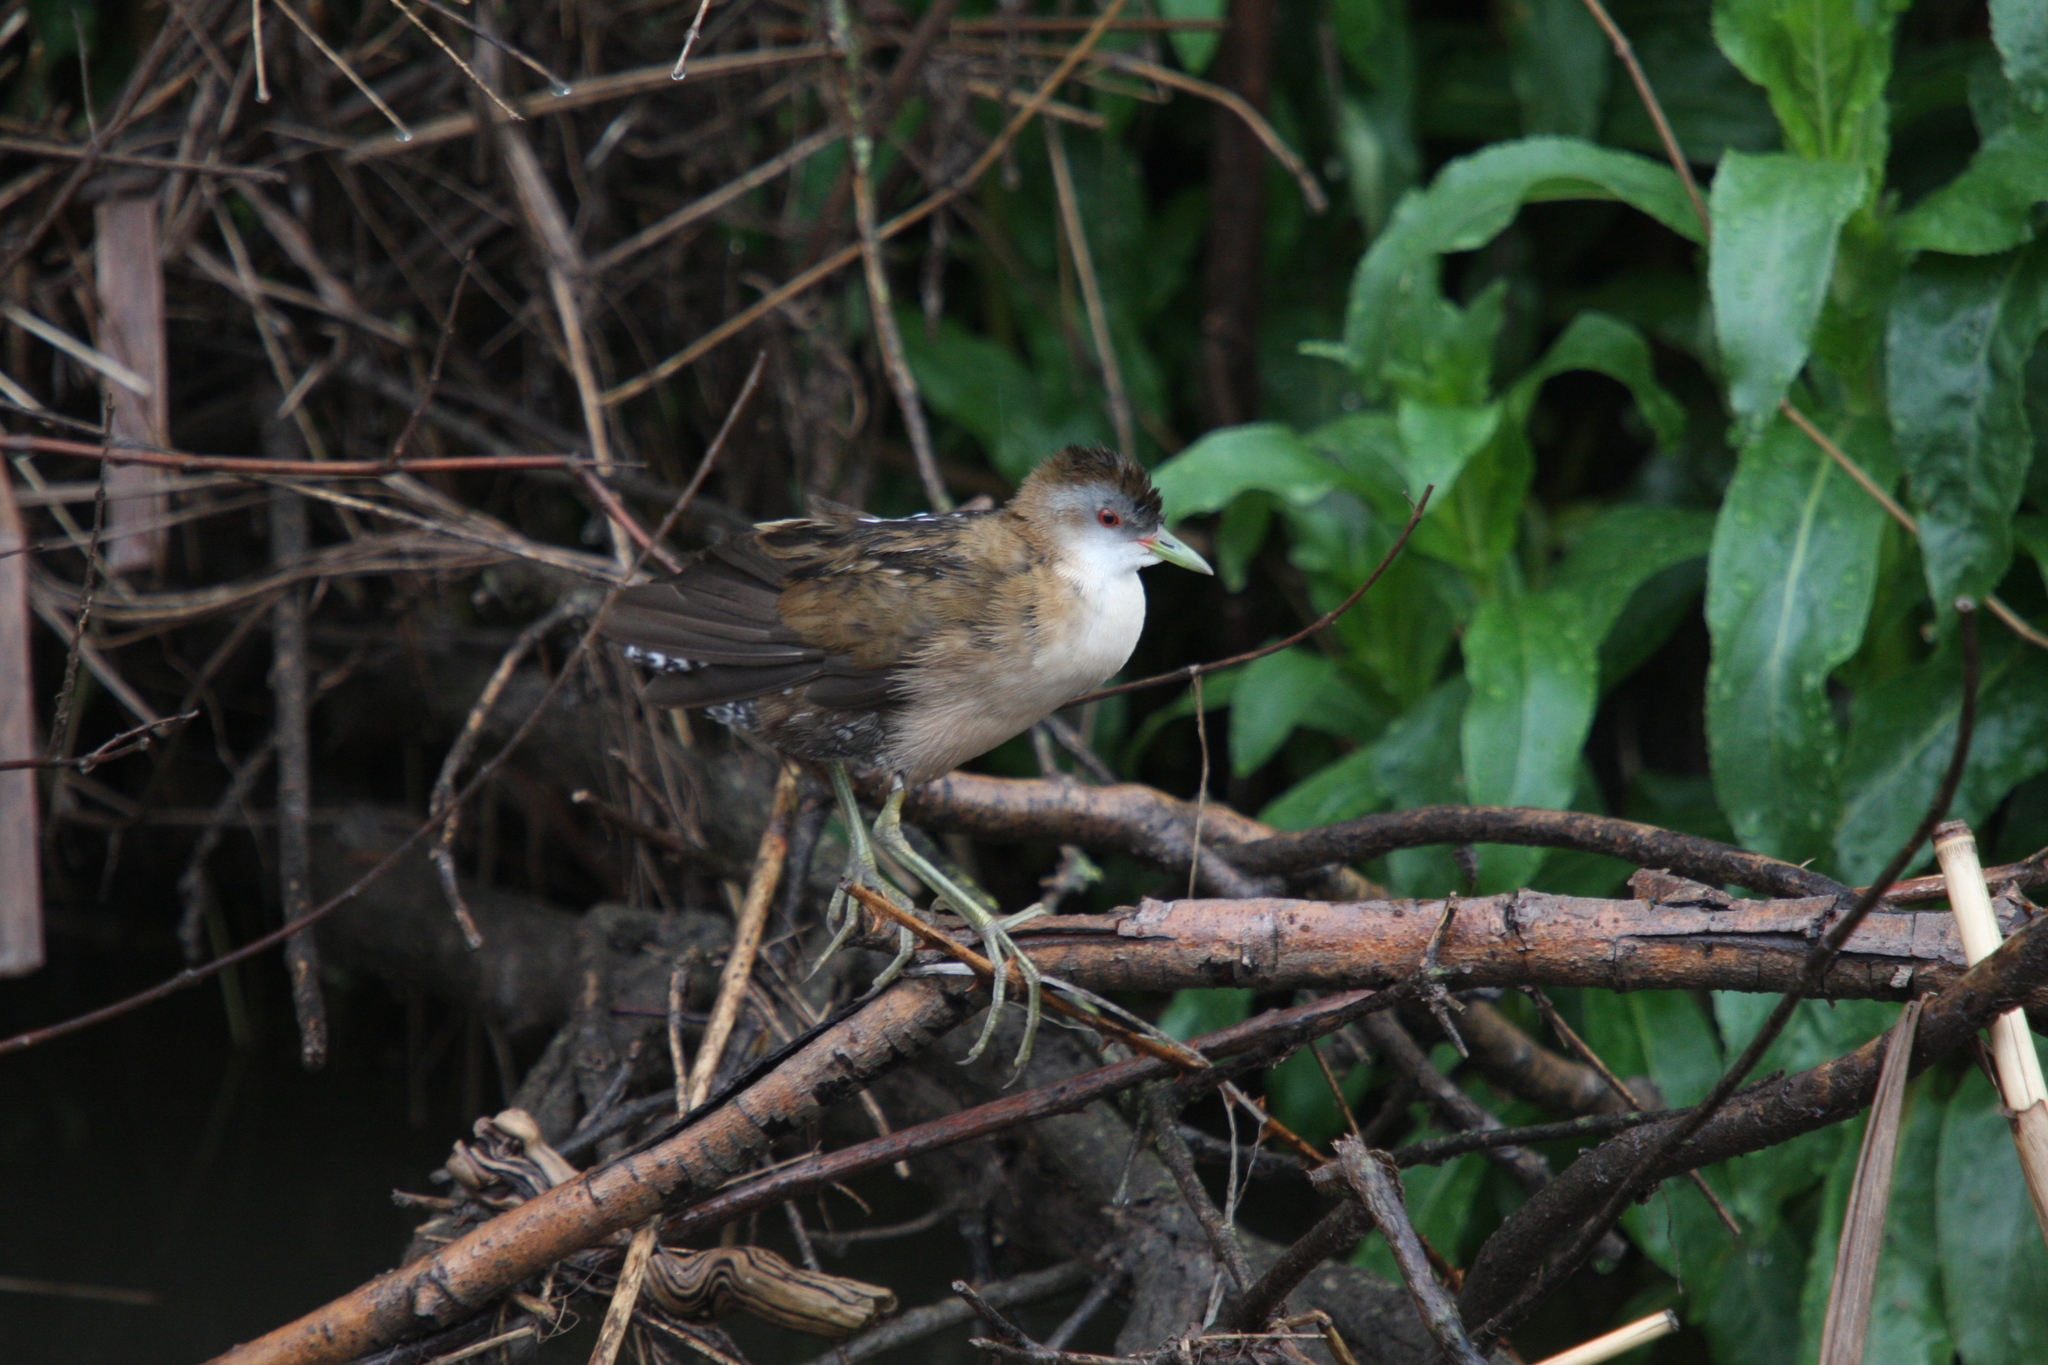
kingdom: Animalia
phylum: Chordata
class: Aves
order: Gruiformes
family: Rallidae
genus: Porzana
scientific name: Porzana parva
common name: Little crake
